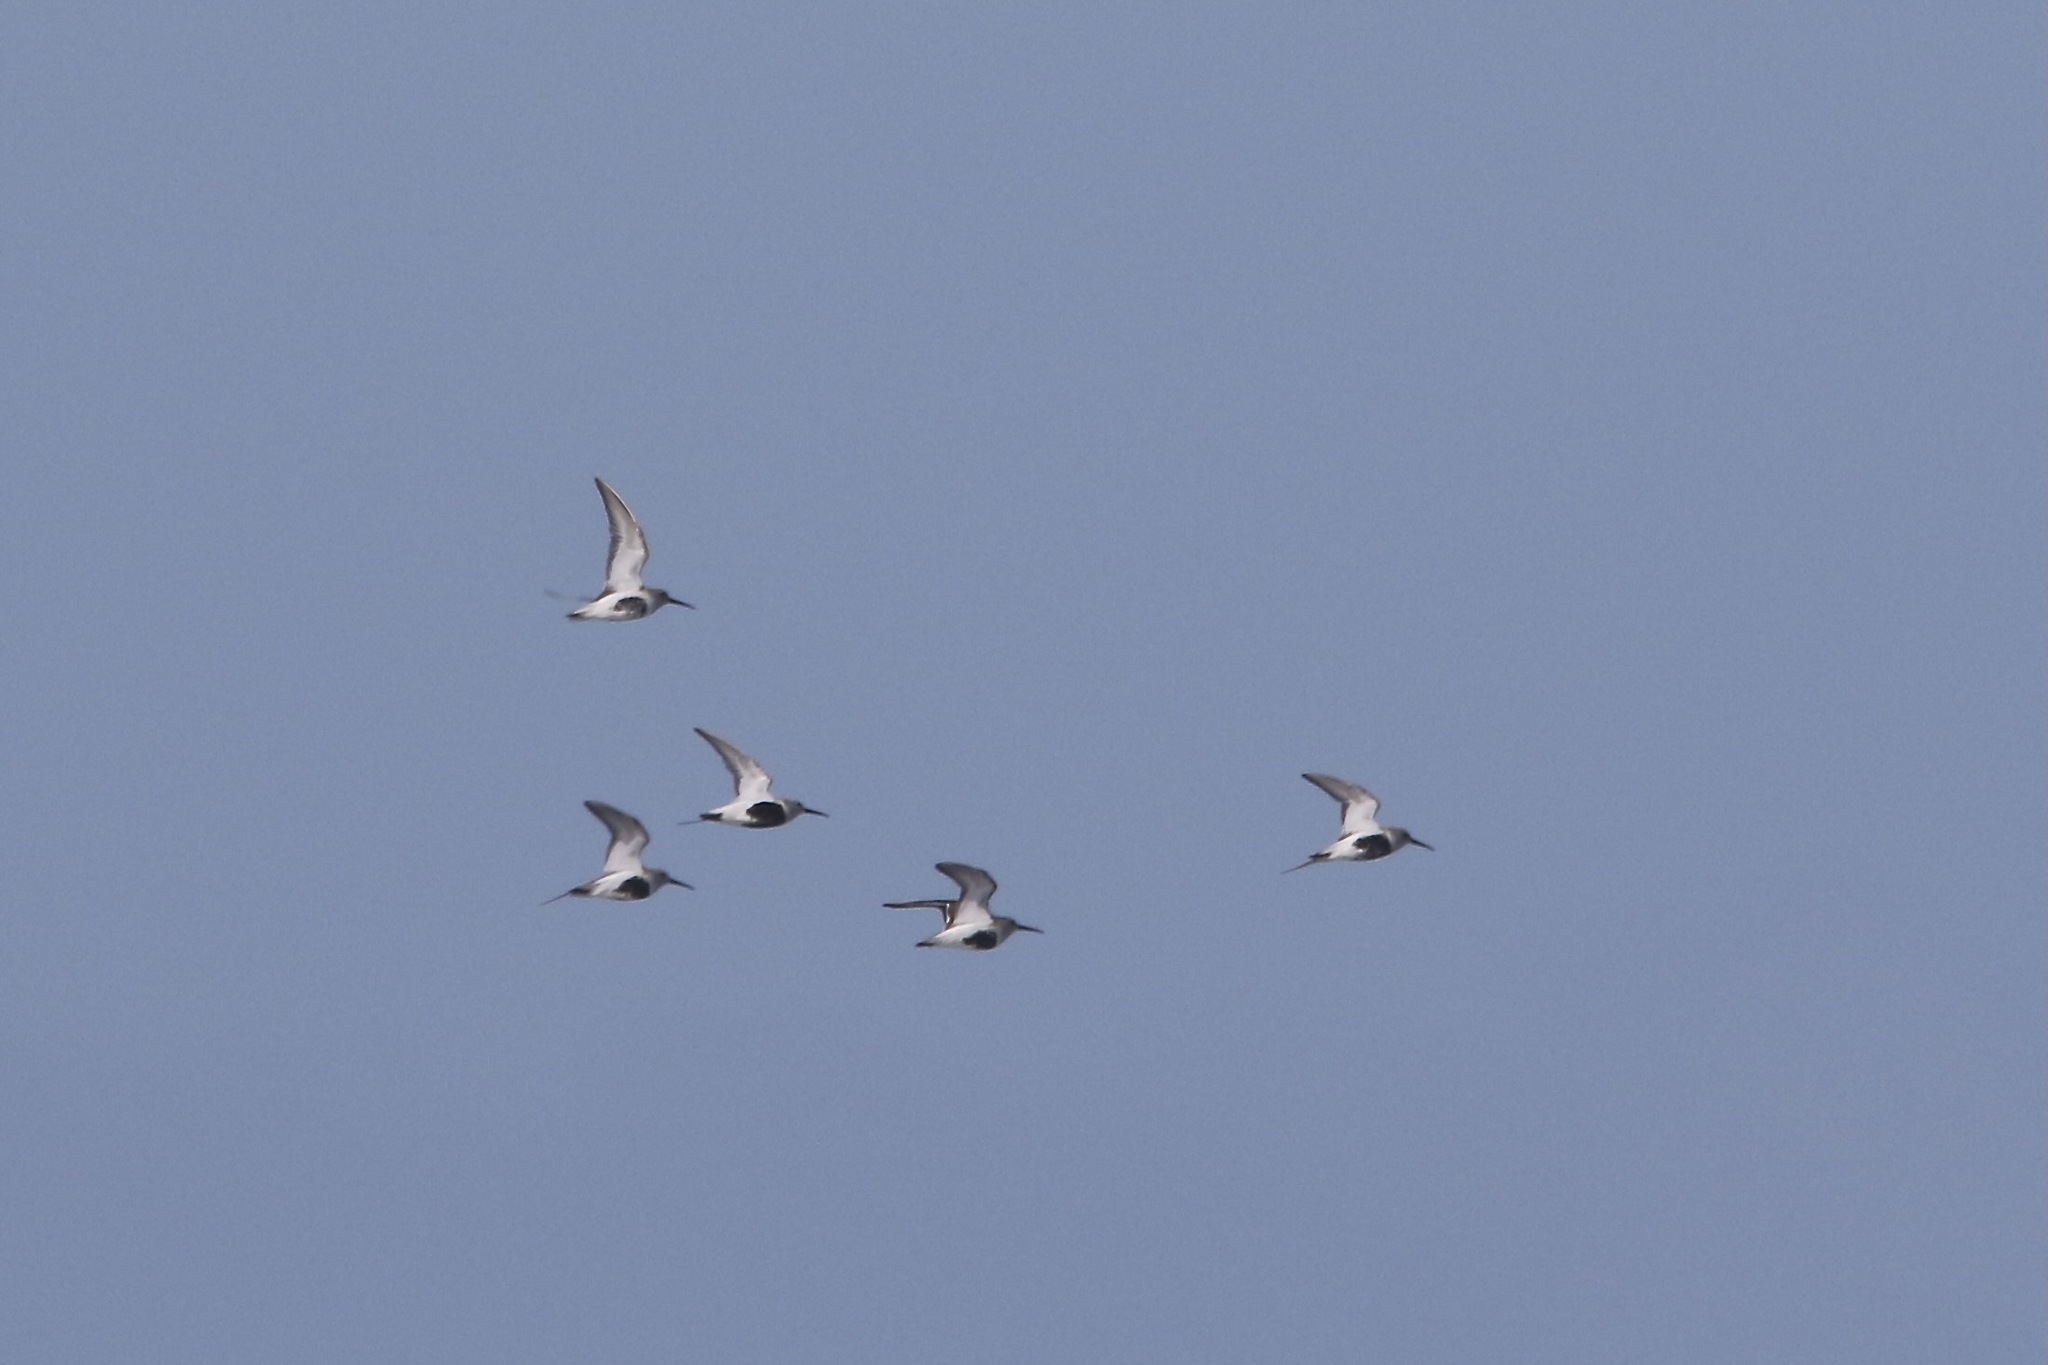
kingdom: Animalia
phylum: Chordata
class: Aves
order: Charadriiformes
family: Scolopacidae
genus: Calidris
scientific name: Calidris alpina
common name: Dunlin
